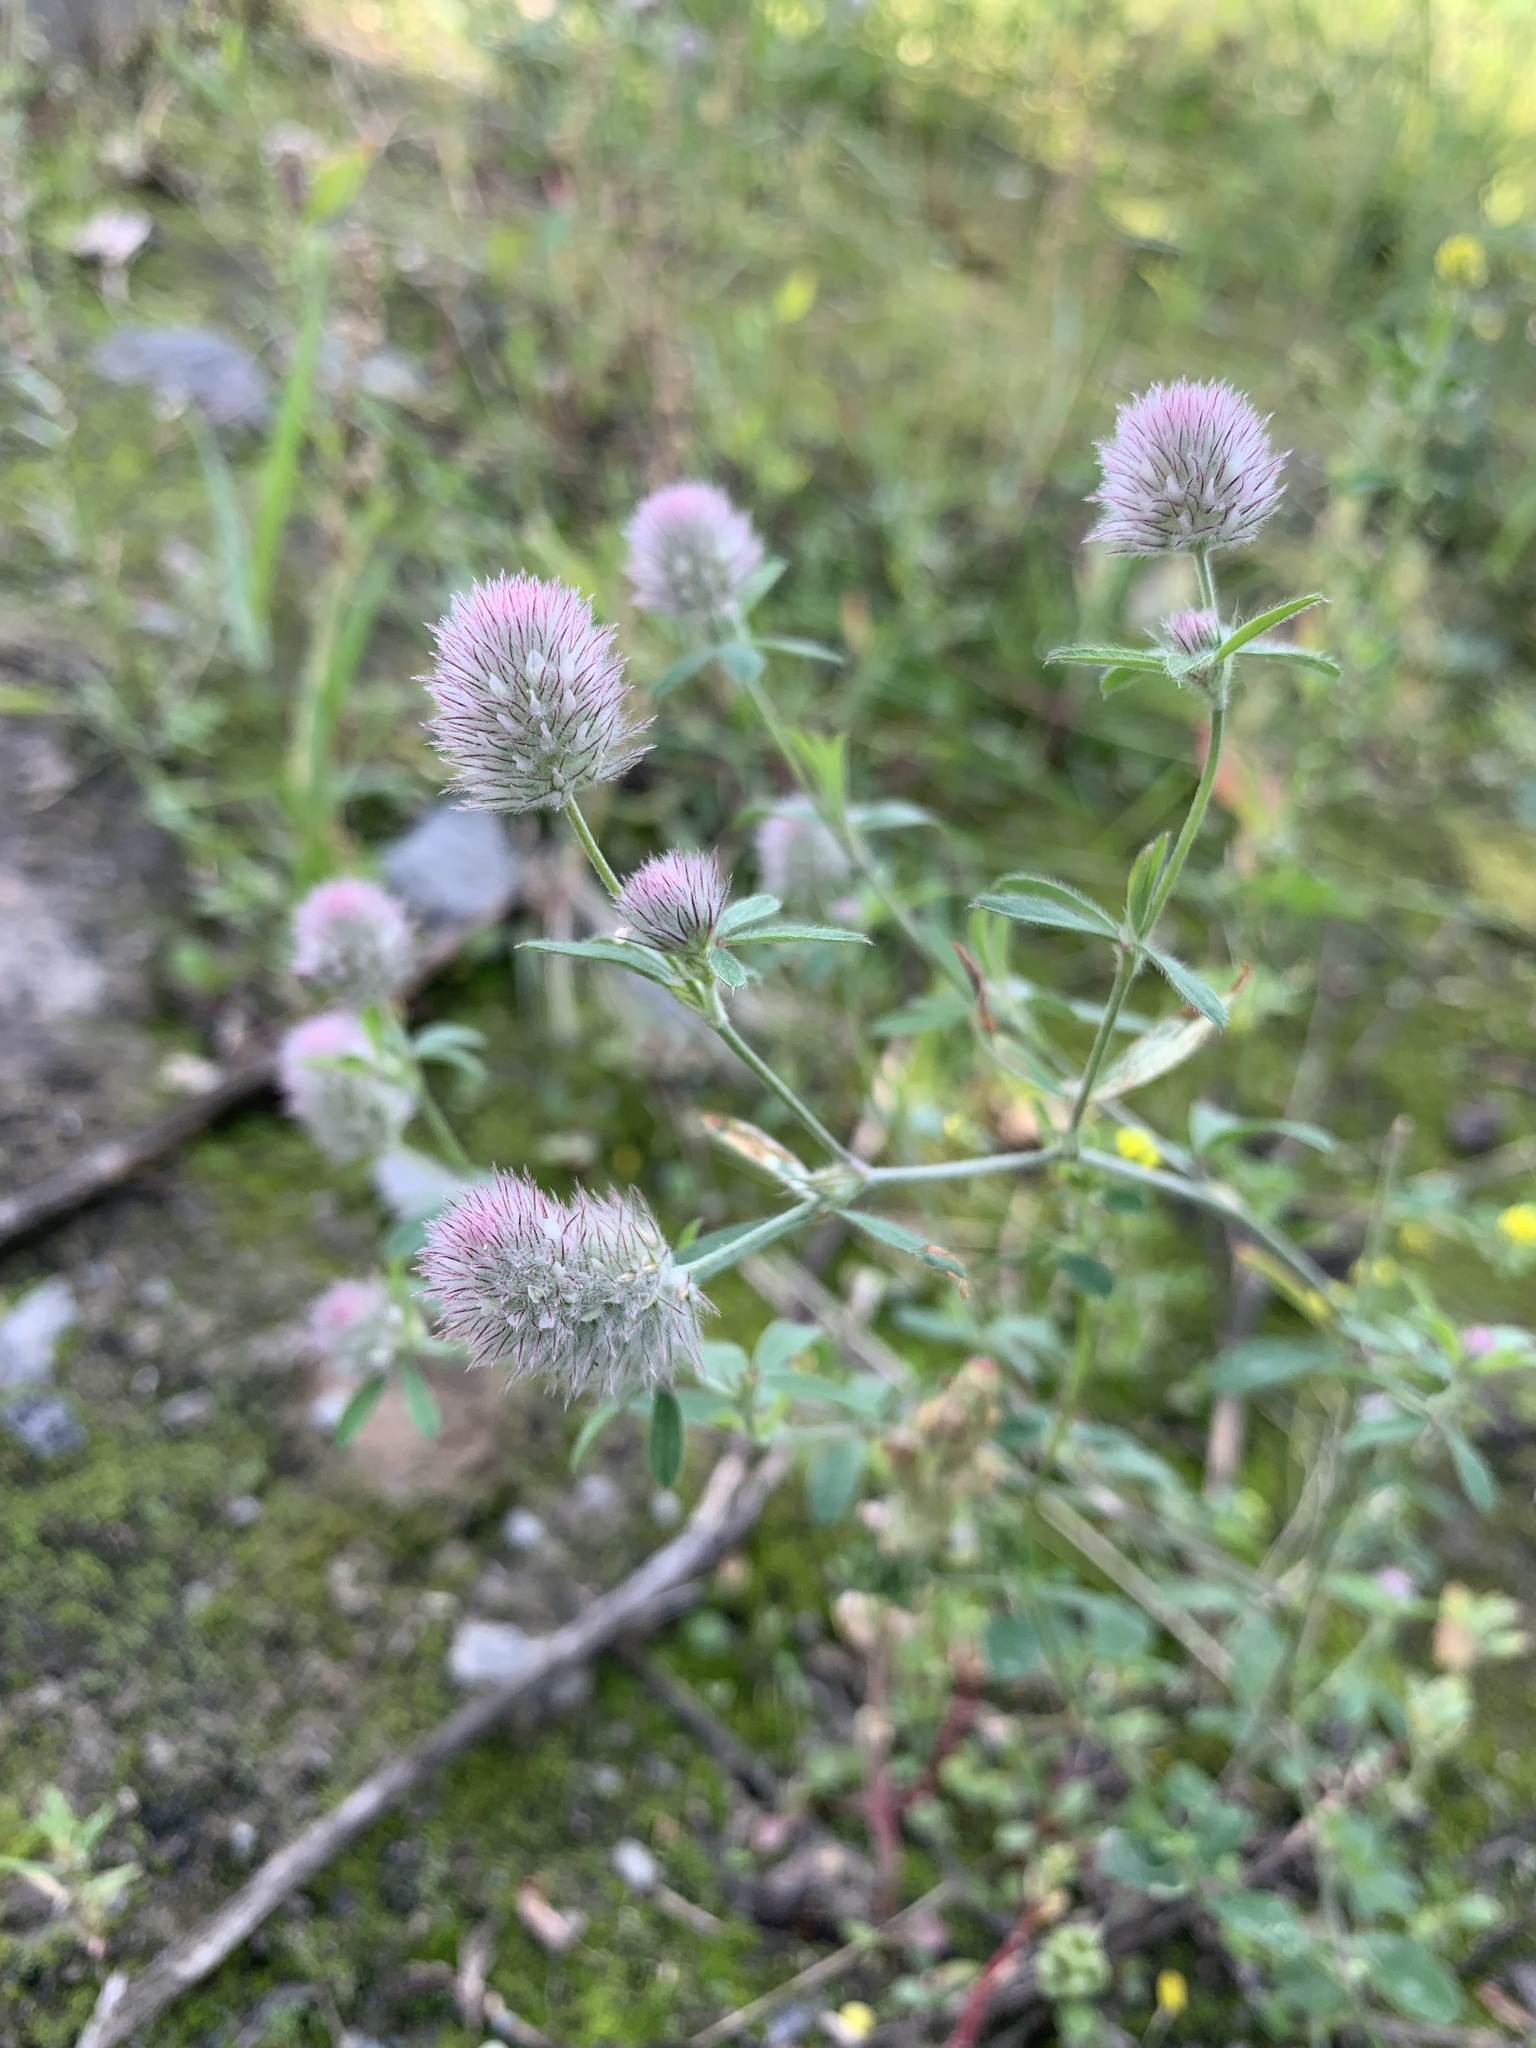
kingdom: Plantae
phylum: Tracheophyta
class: Magnoliopsida
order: Fabales
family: Fabaceae
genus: Trifolium
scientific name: Trifolium arvense
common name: Hare's-foot clover
